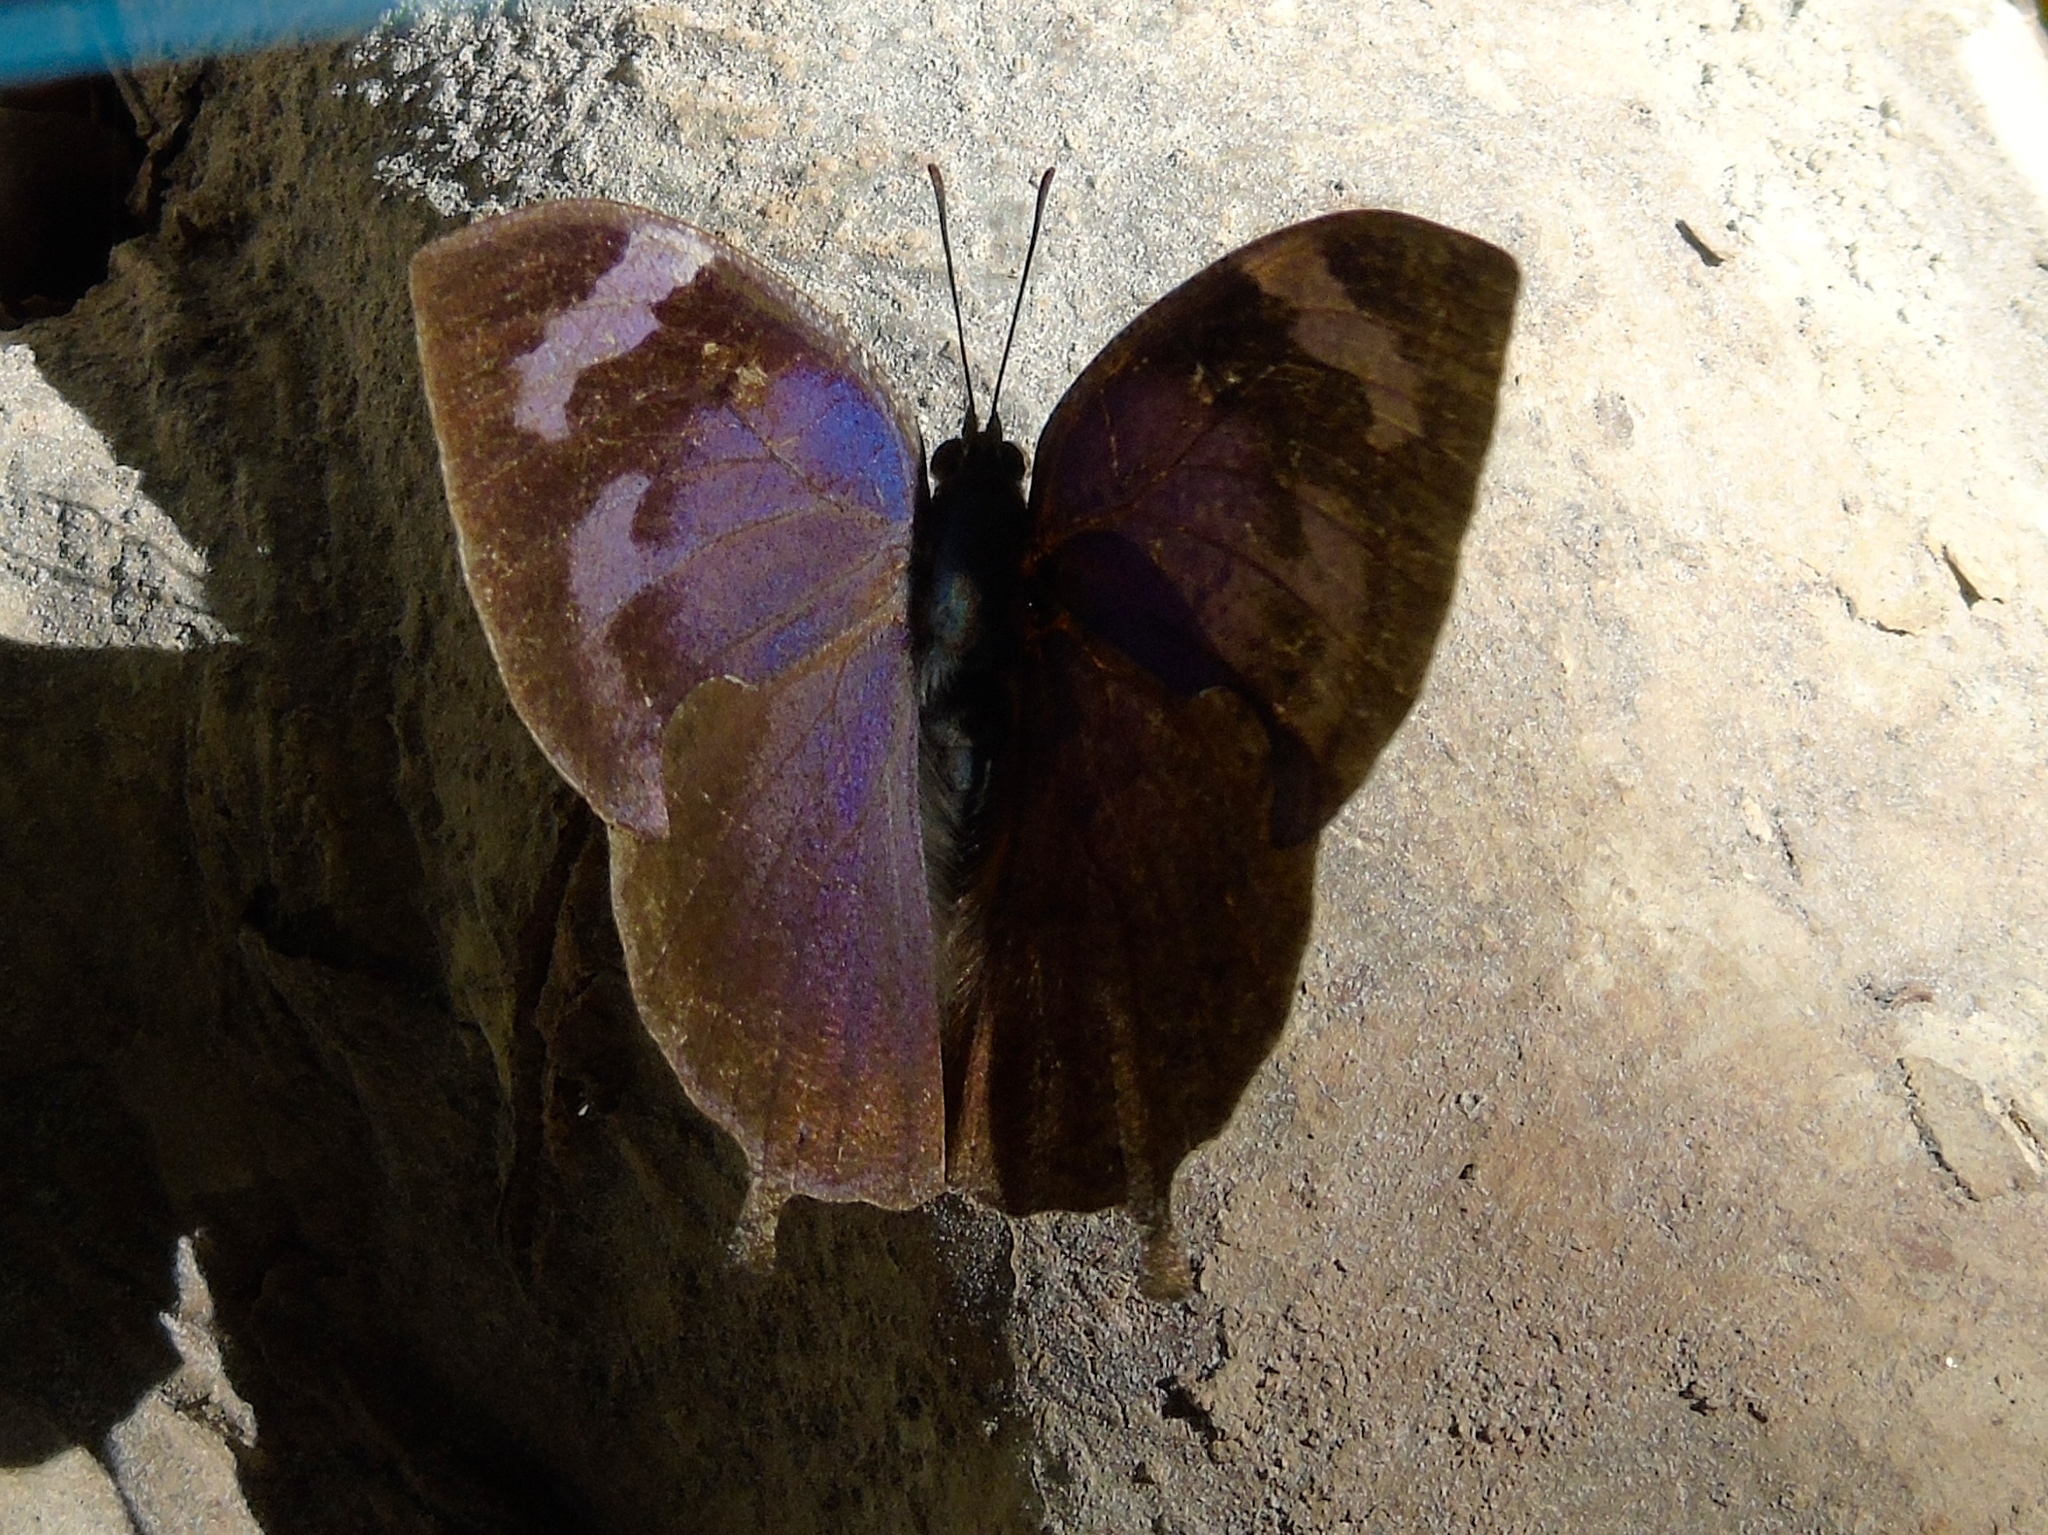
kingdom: Animalia
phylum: Arthropoda
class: Insecta
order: Lepidoptera
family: Nymphalidae
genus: Memphis
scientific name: Memphis forreri
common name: Forrer's leafwing
